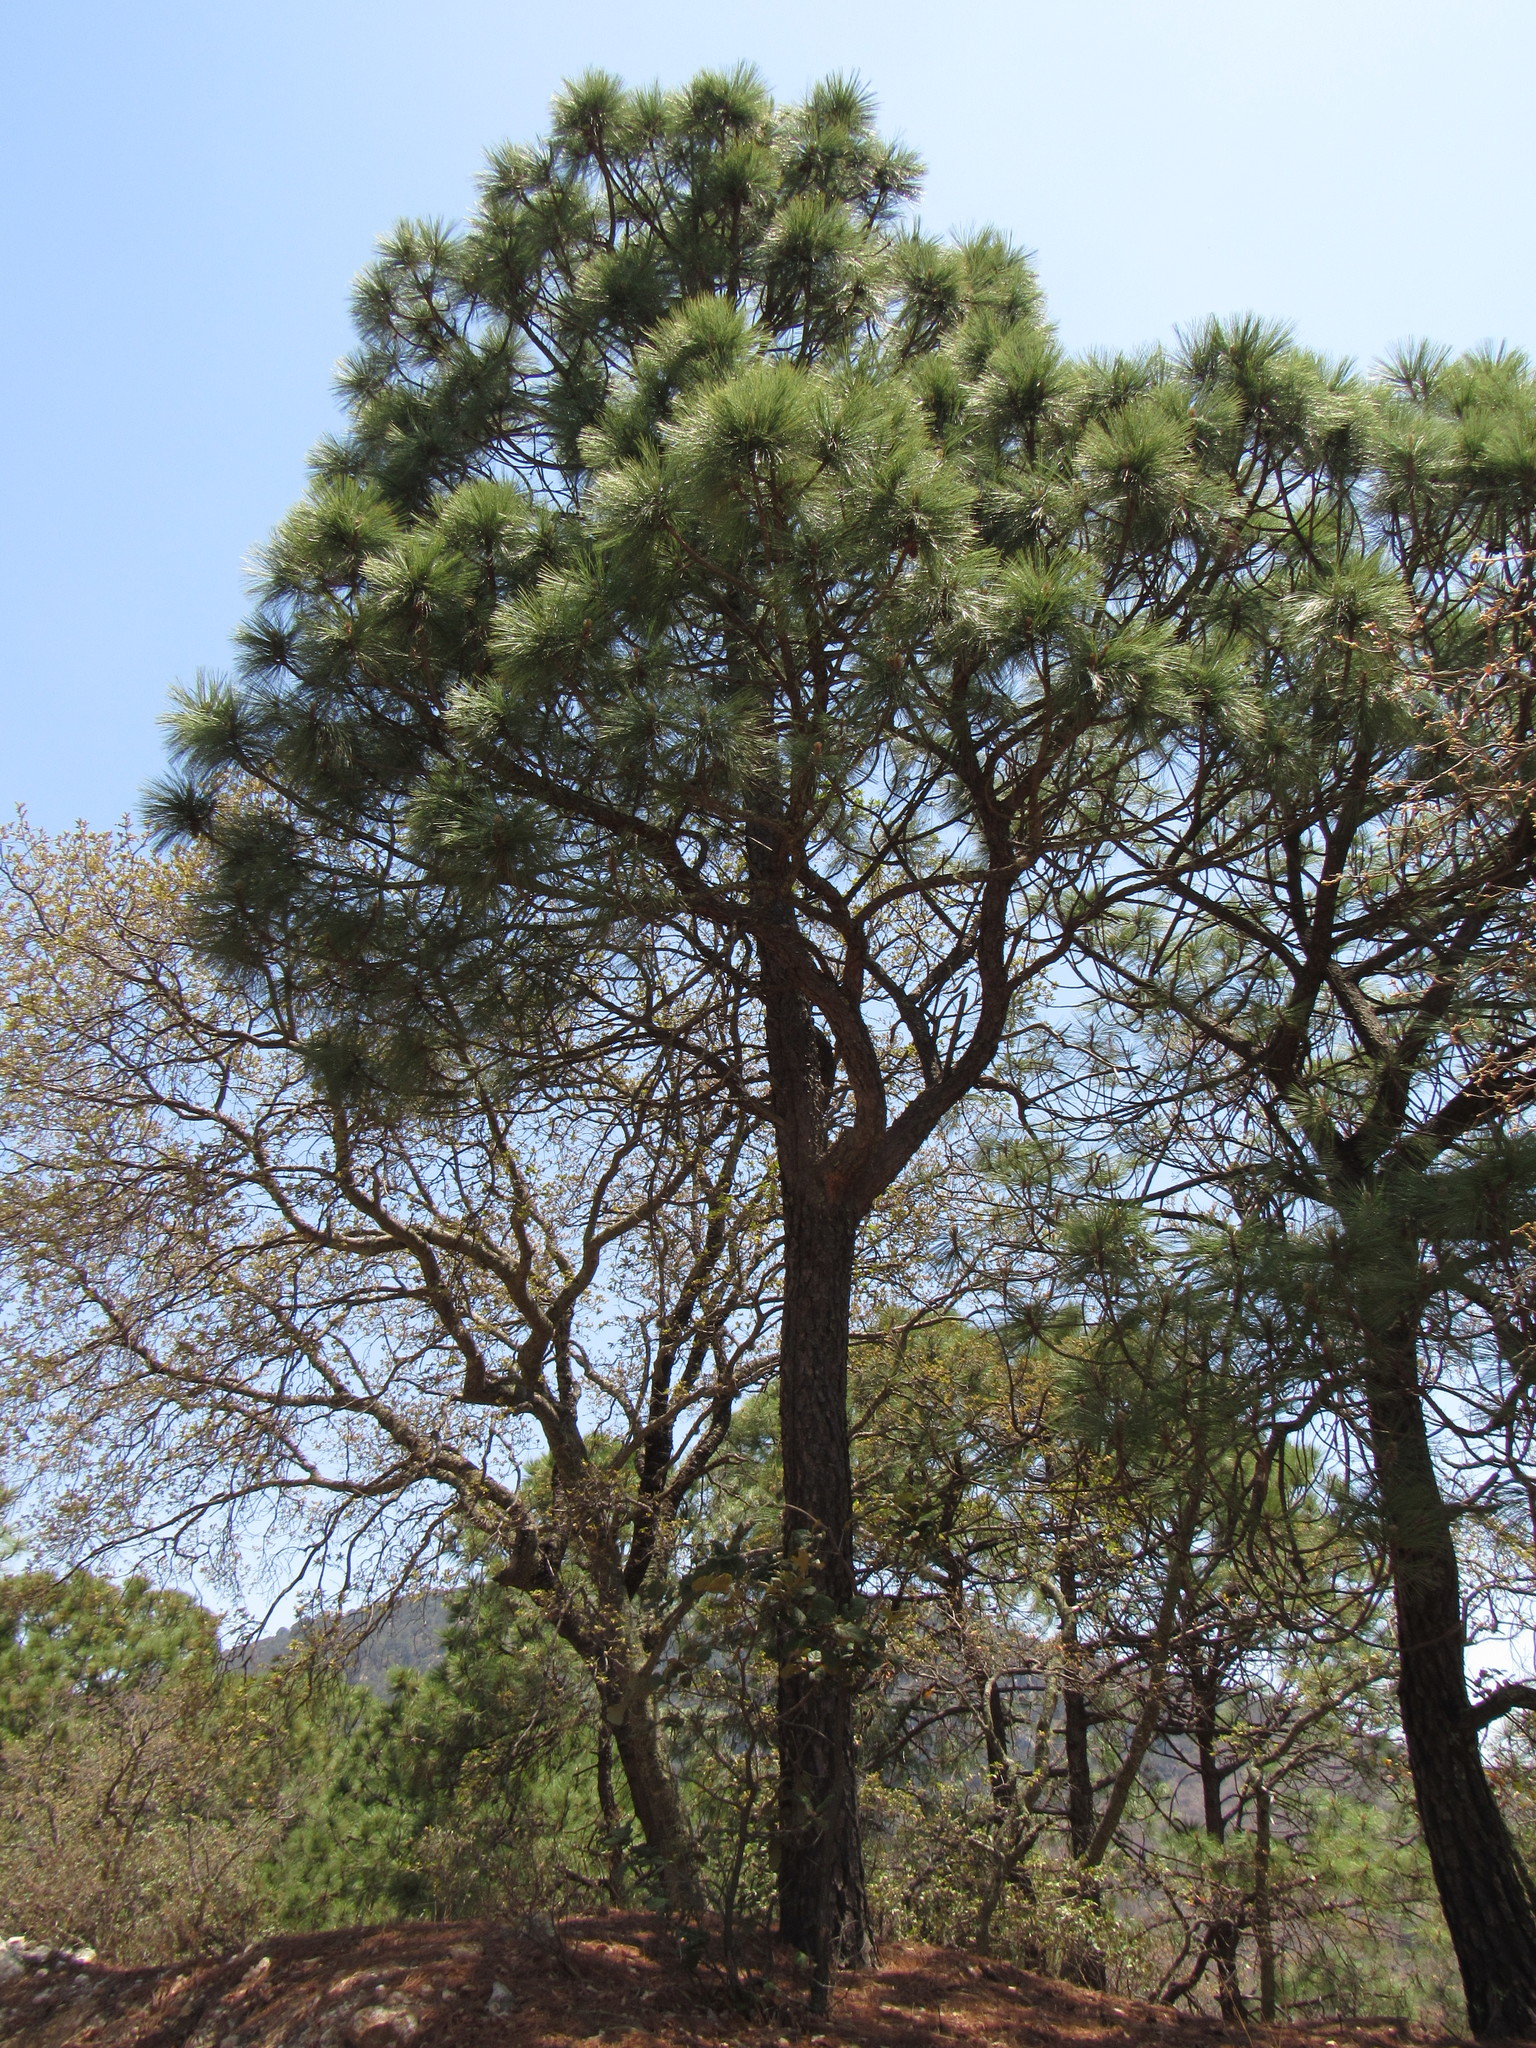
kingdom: Plantae
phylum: Tracheophyta
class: Pinopsida
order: Pinales
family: Pinaceae
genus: Pinus
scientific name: Pinus teocote
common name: Aztec pine
